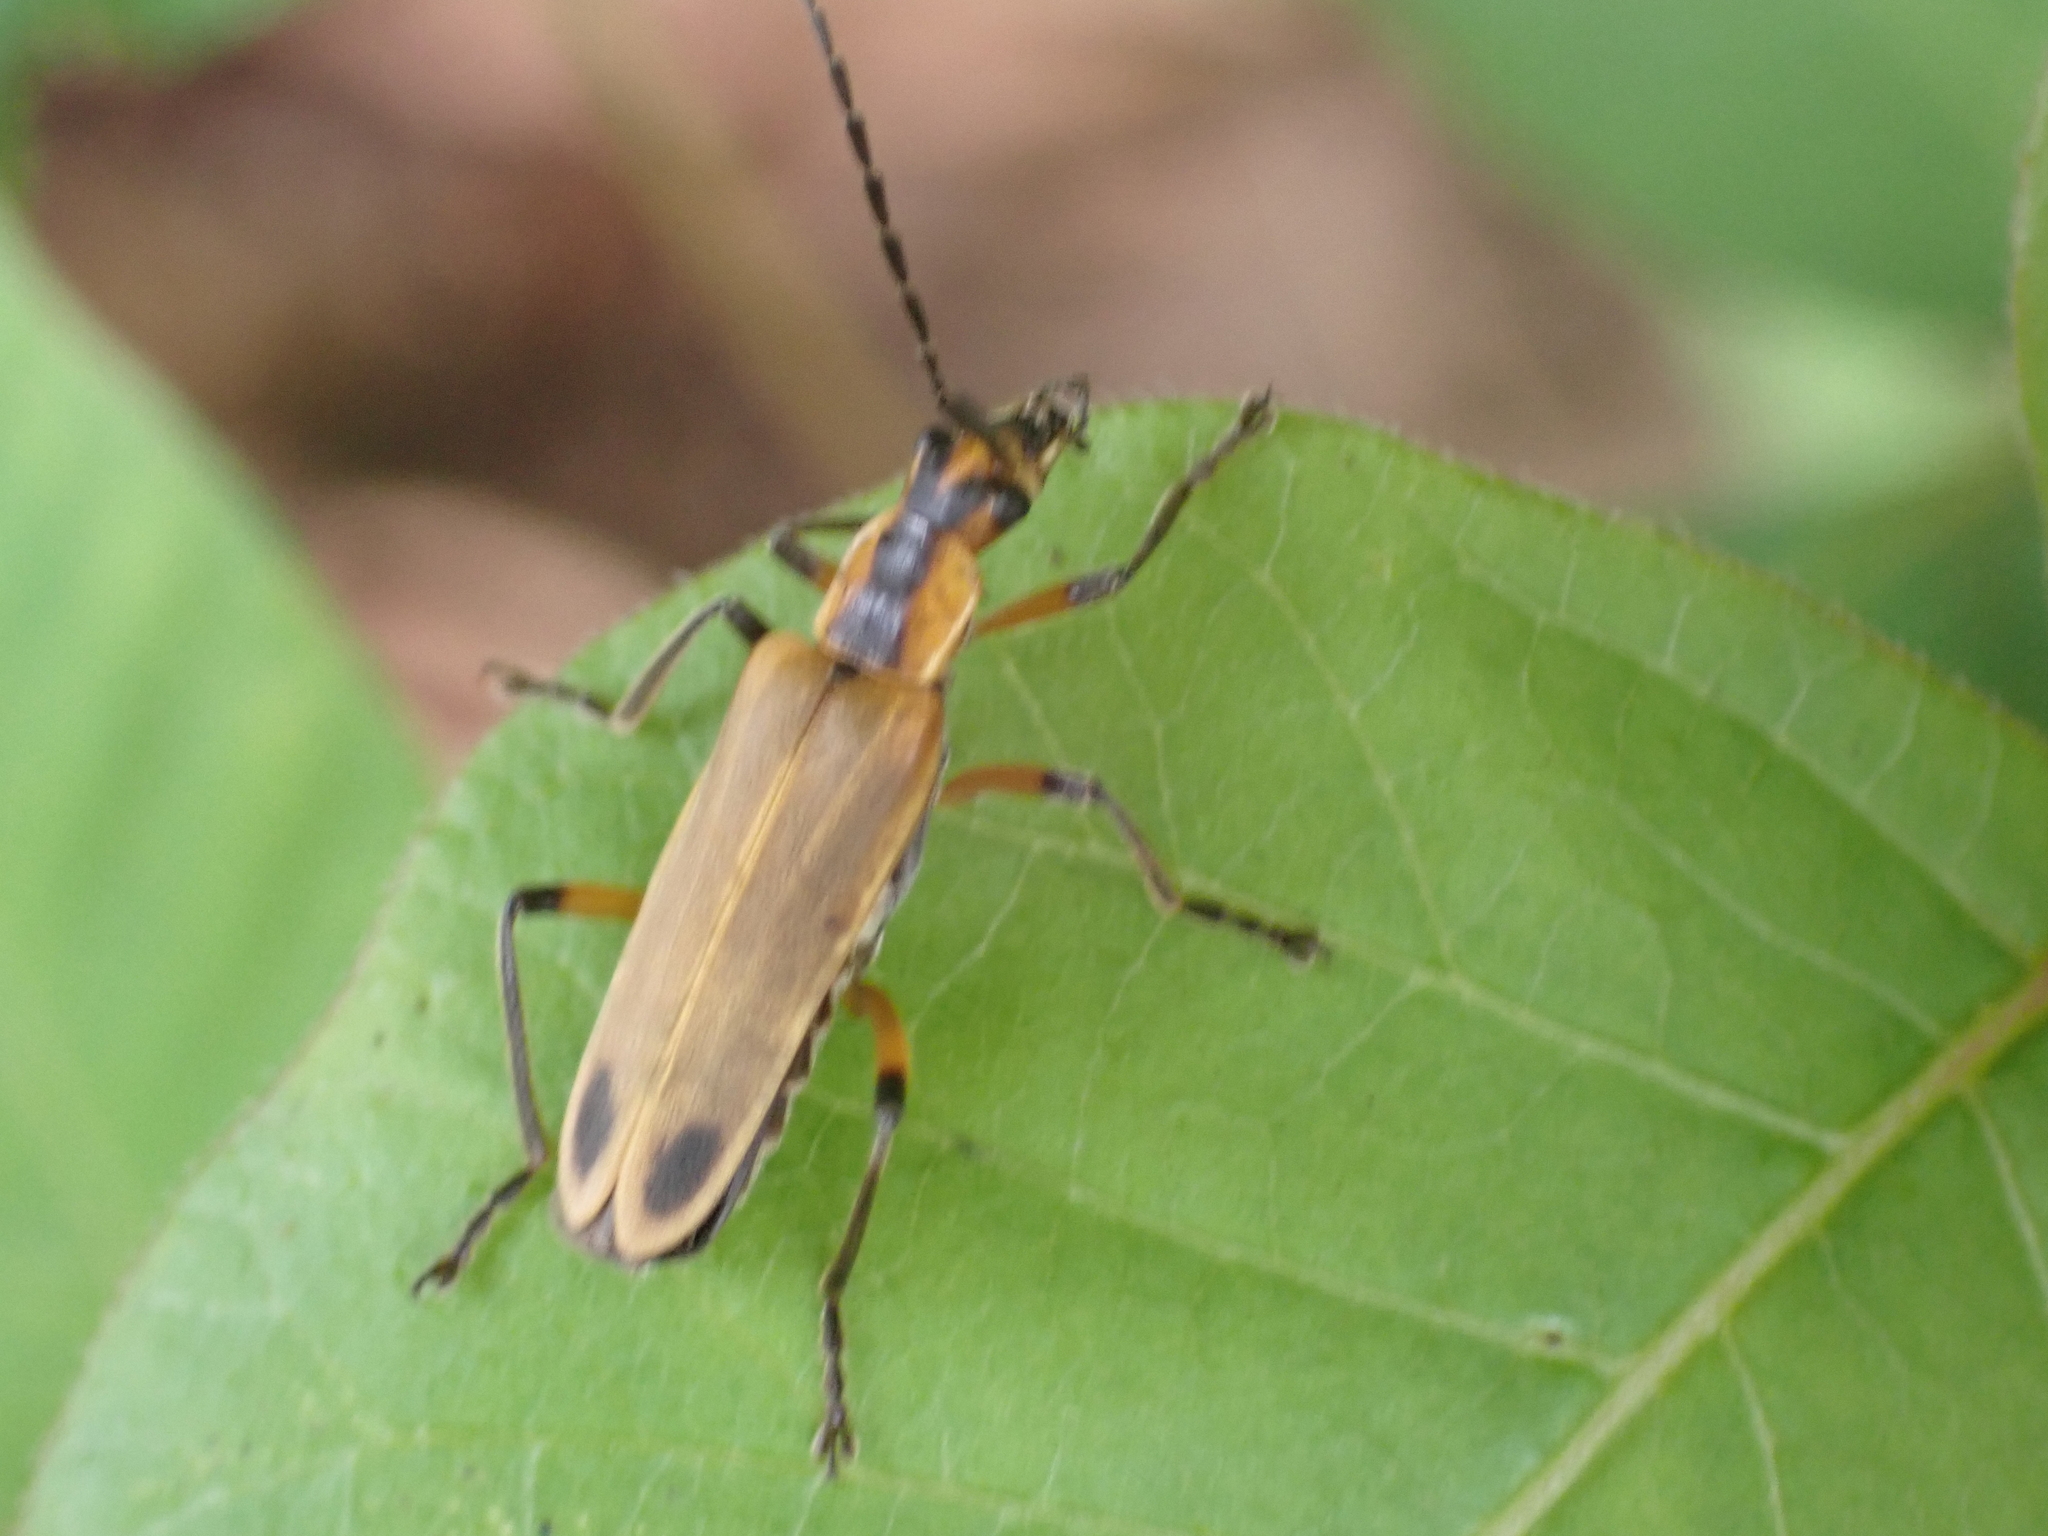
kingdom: Animalia
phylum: Arthropoda
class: Insecta
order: Coleoptera
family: Cantharidae
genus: Chauliognathus
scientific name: Chauliognathus marginatus
